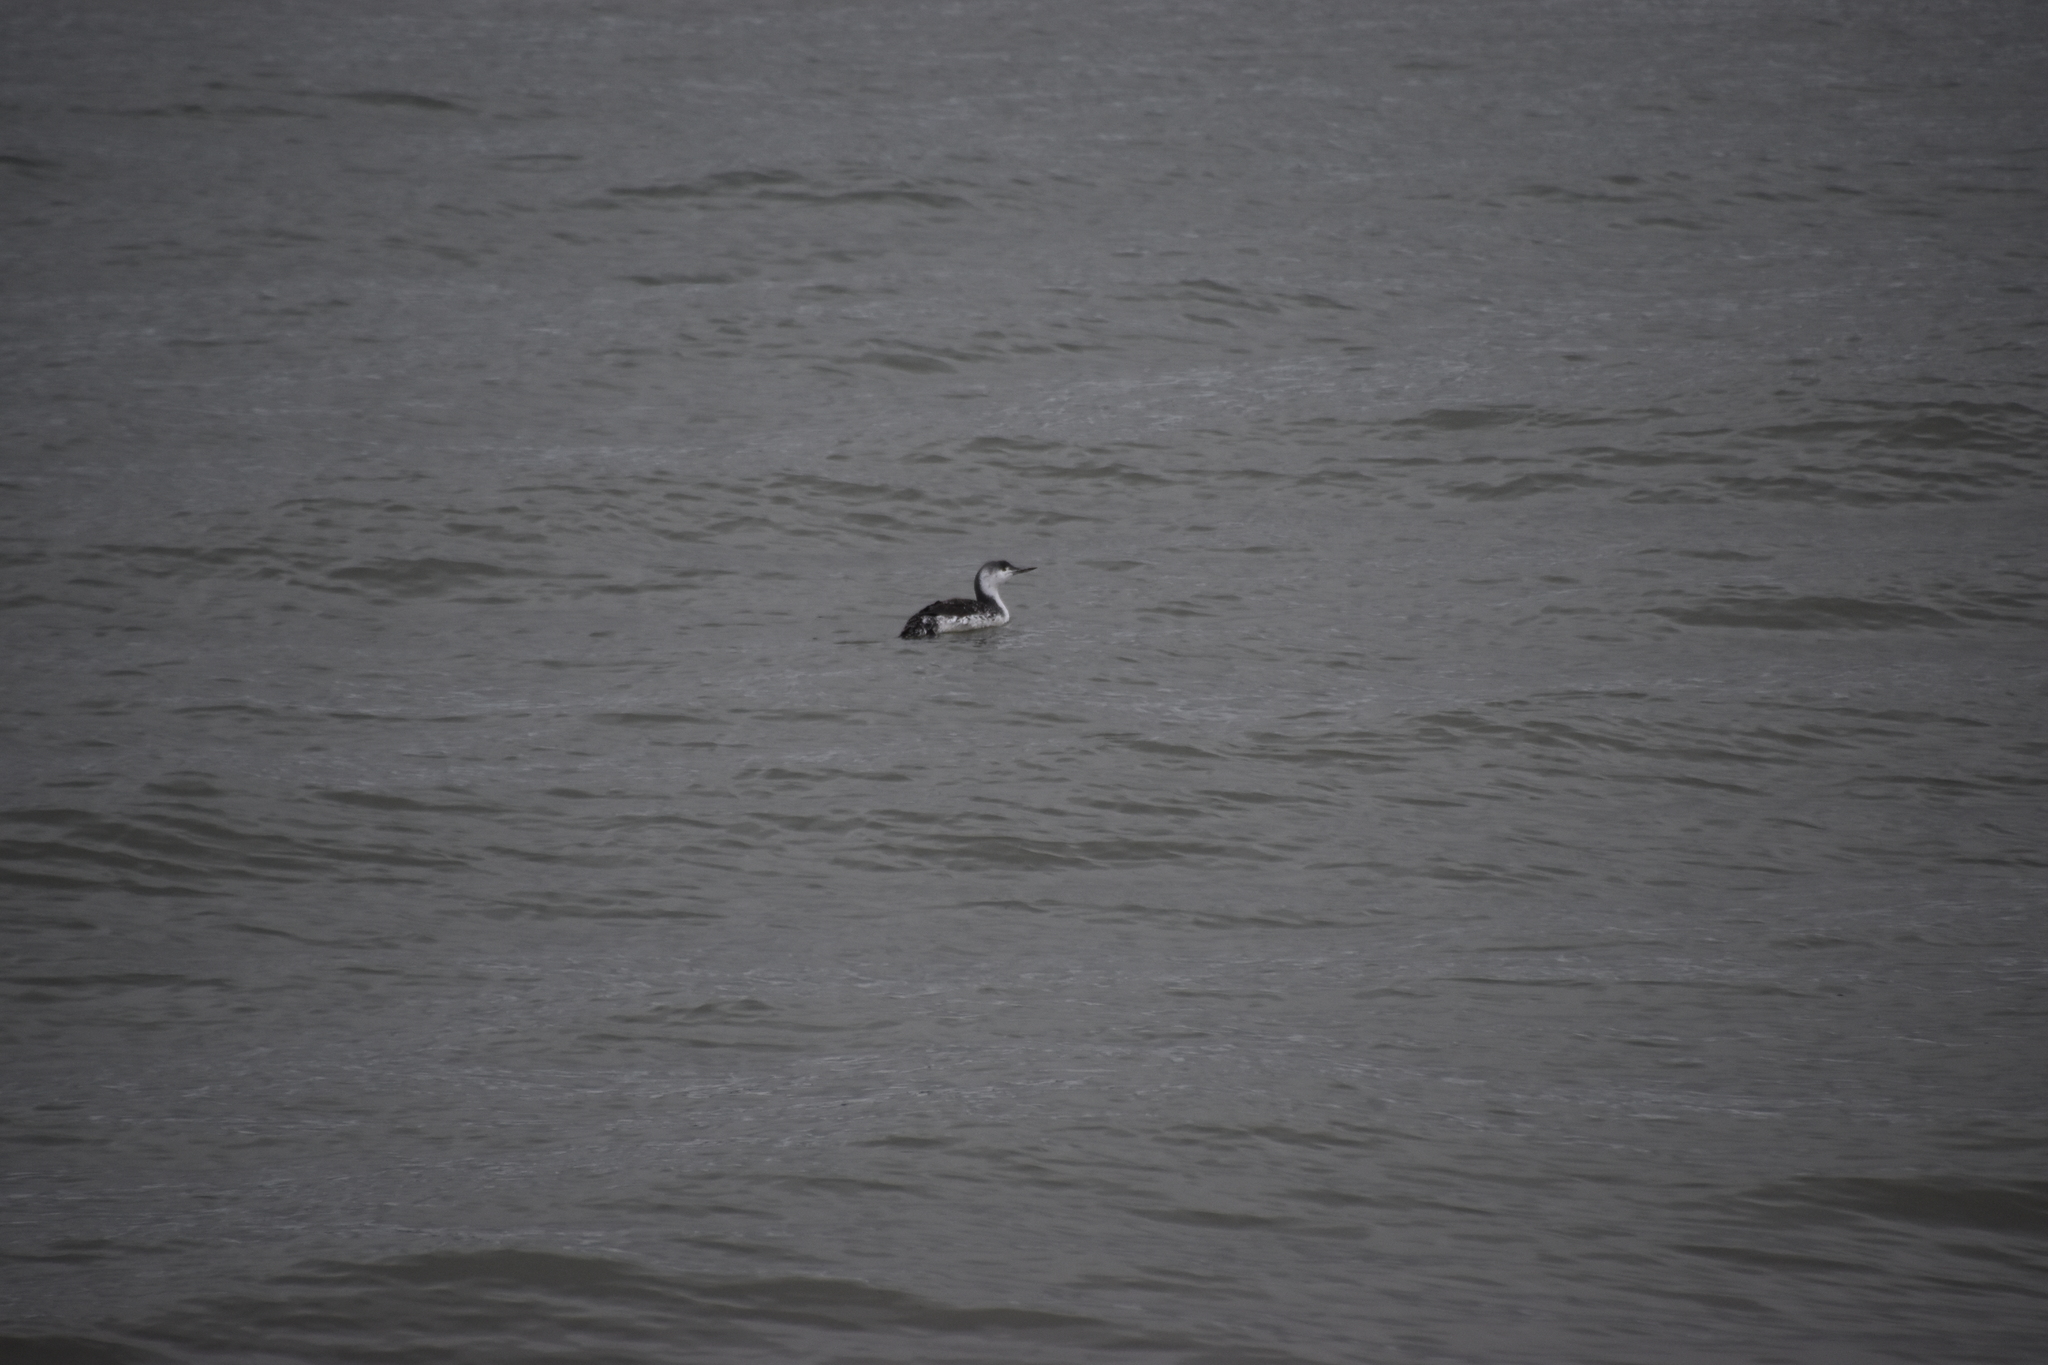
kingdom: Animalia
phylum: Chordata
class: Aves
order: Gaviiformes
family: Gaviidae
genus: Gavia
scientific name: Gavia stellata
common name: Red-throated loon
